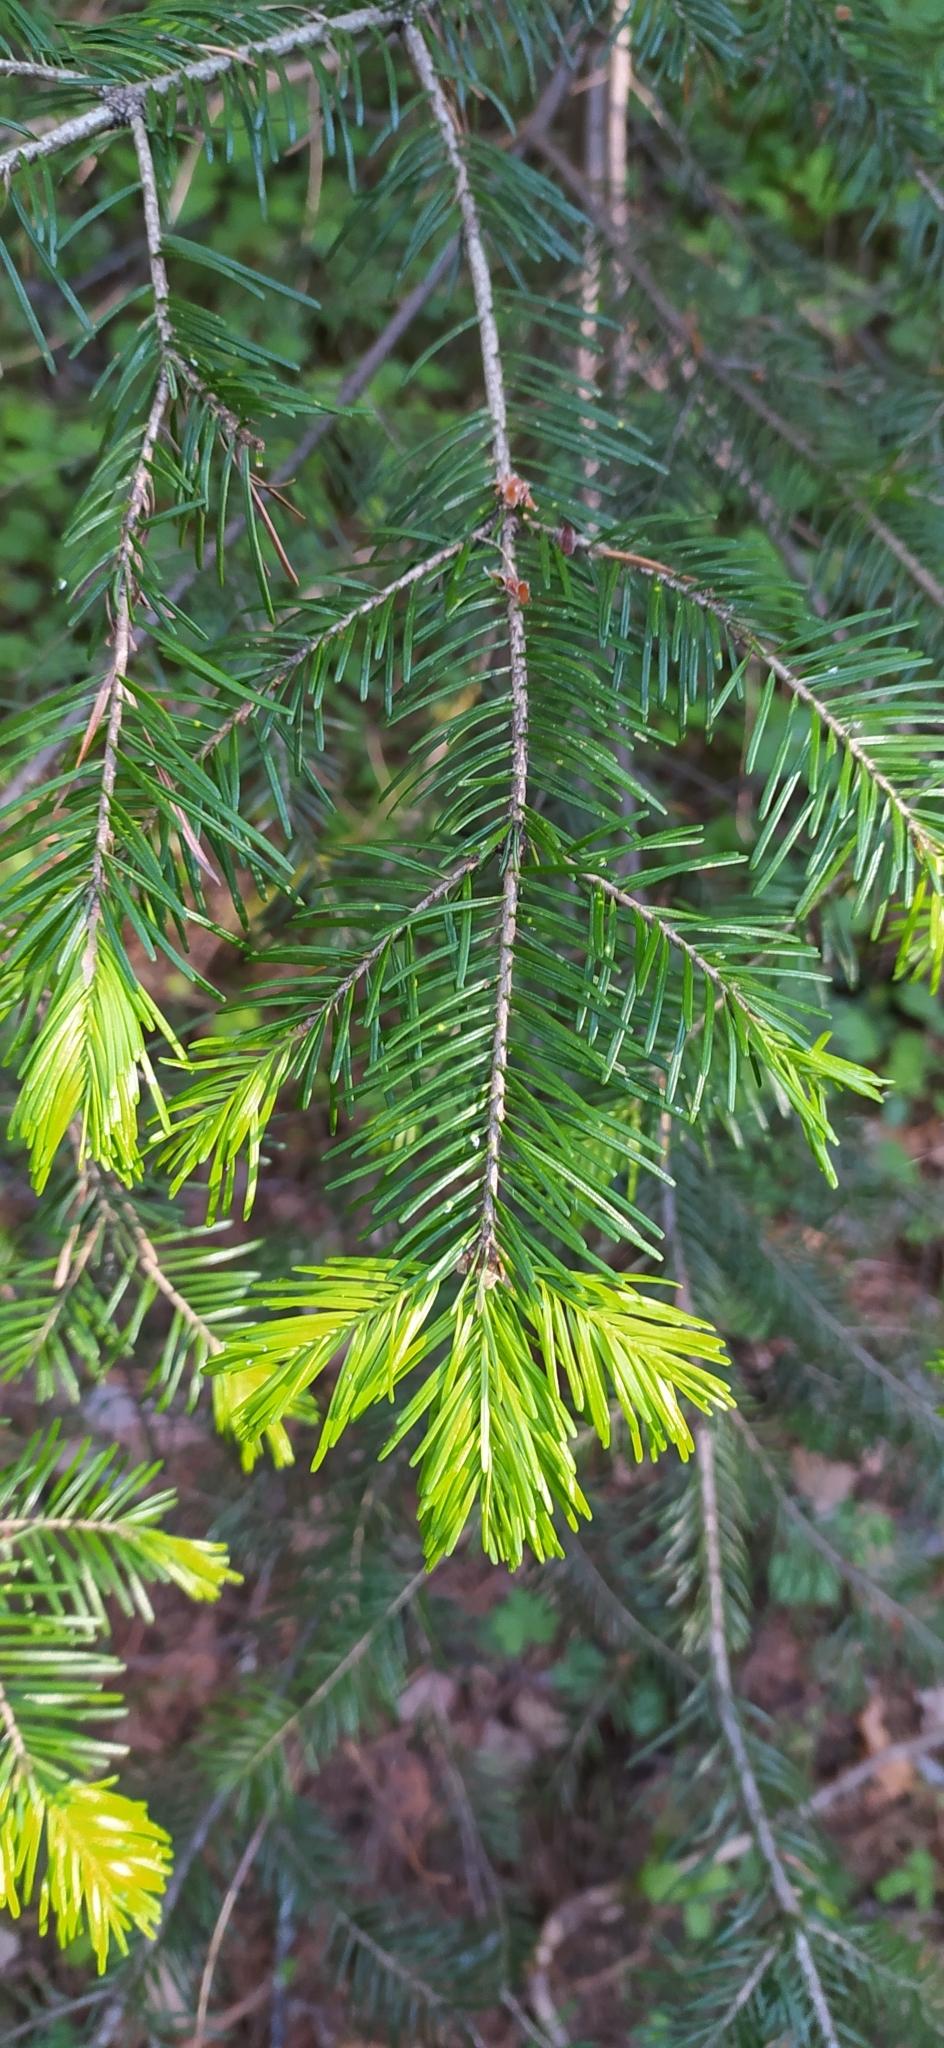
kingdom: Plantae
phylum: Tracheophyta
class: Pinopsida
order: Pinales
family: Pinaceae
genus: Abies
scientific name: Abies sibirica
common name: Siberian fir
